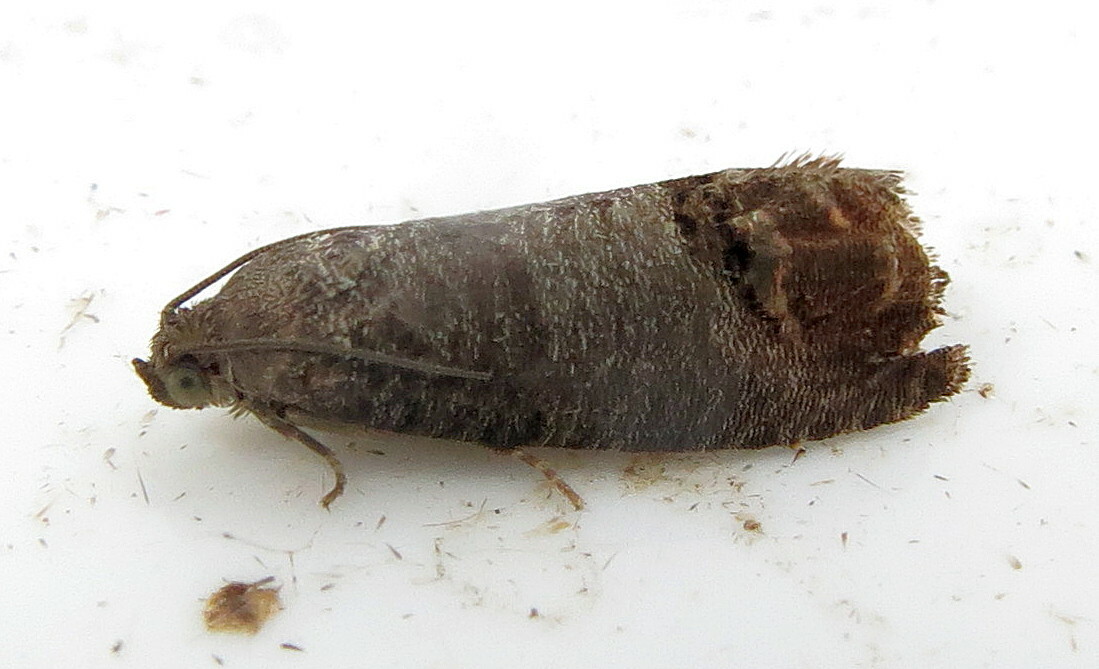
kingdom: Animalia
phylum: Arthropoda
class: Insecta
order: Lepidoptera
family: Tortricidae
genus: Cydia
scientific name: Cydia pomonella
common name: Codling moth
